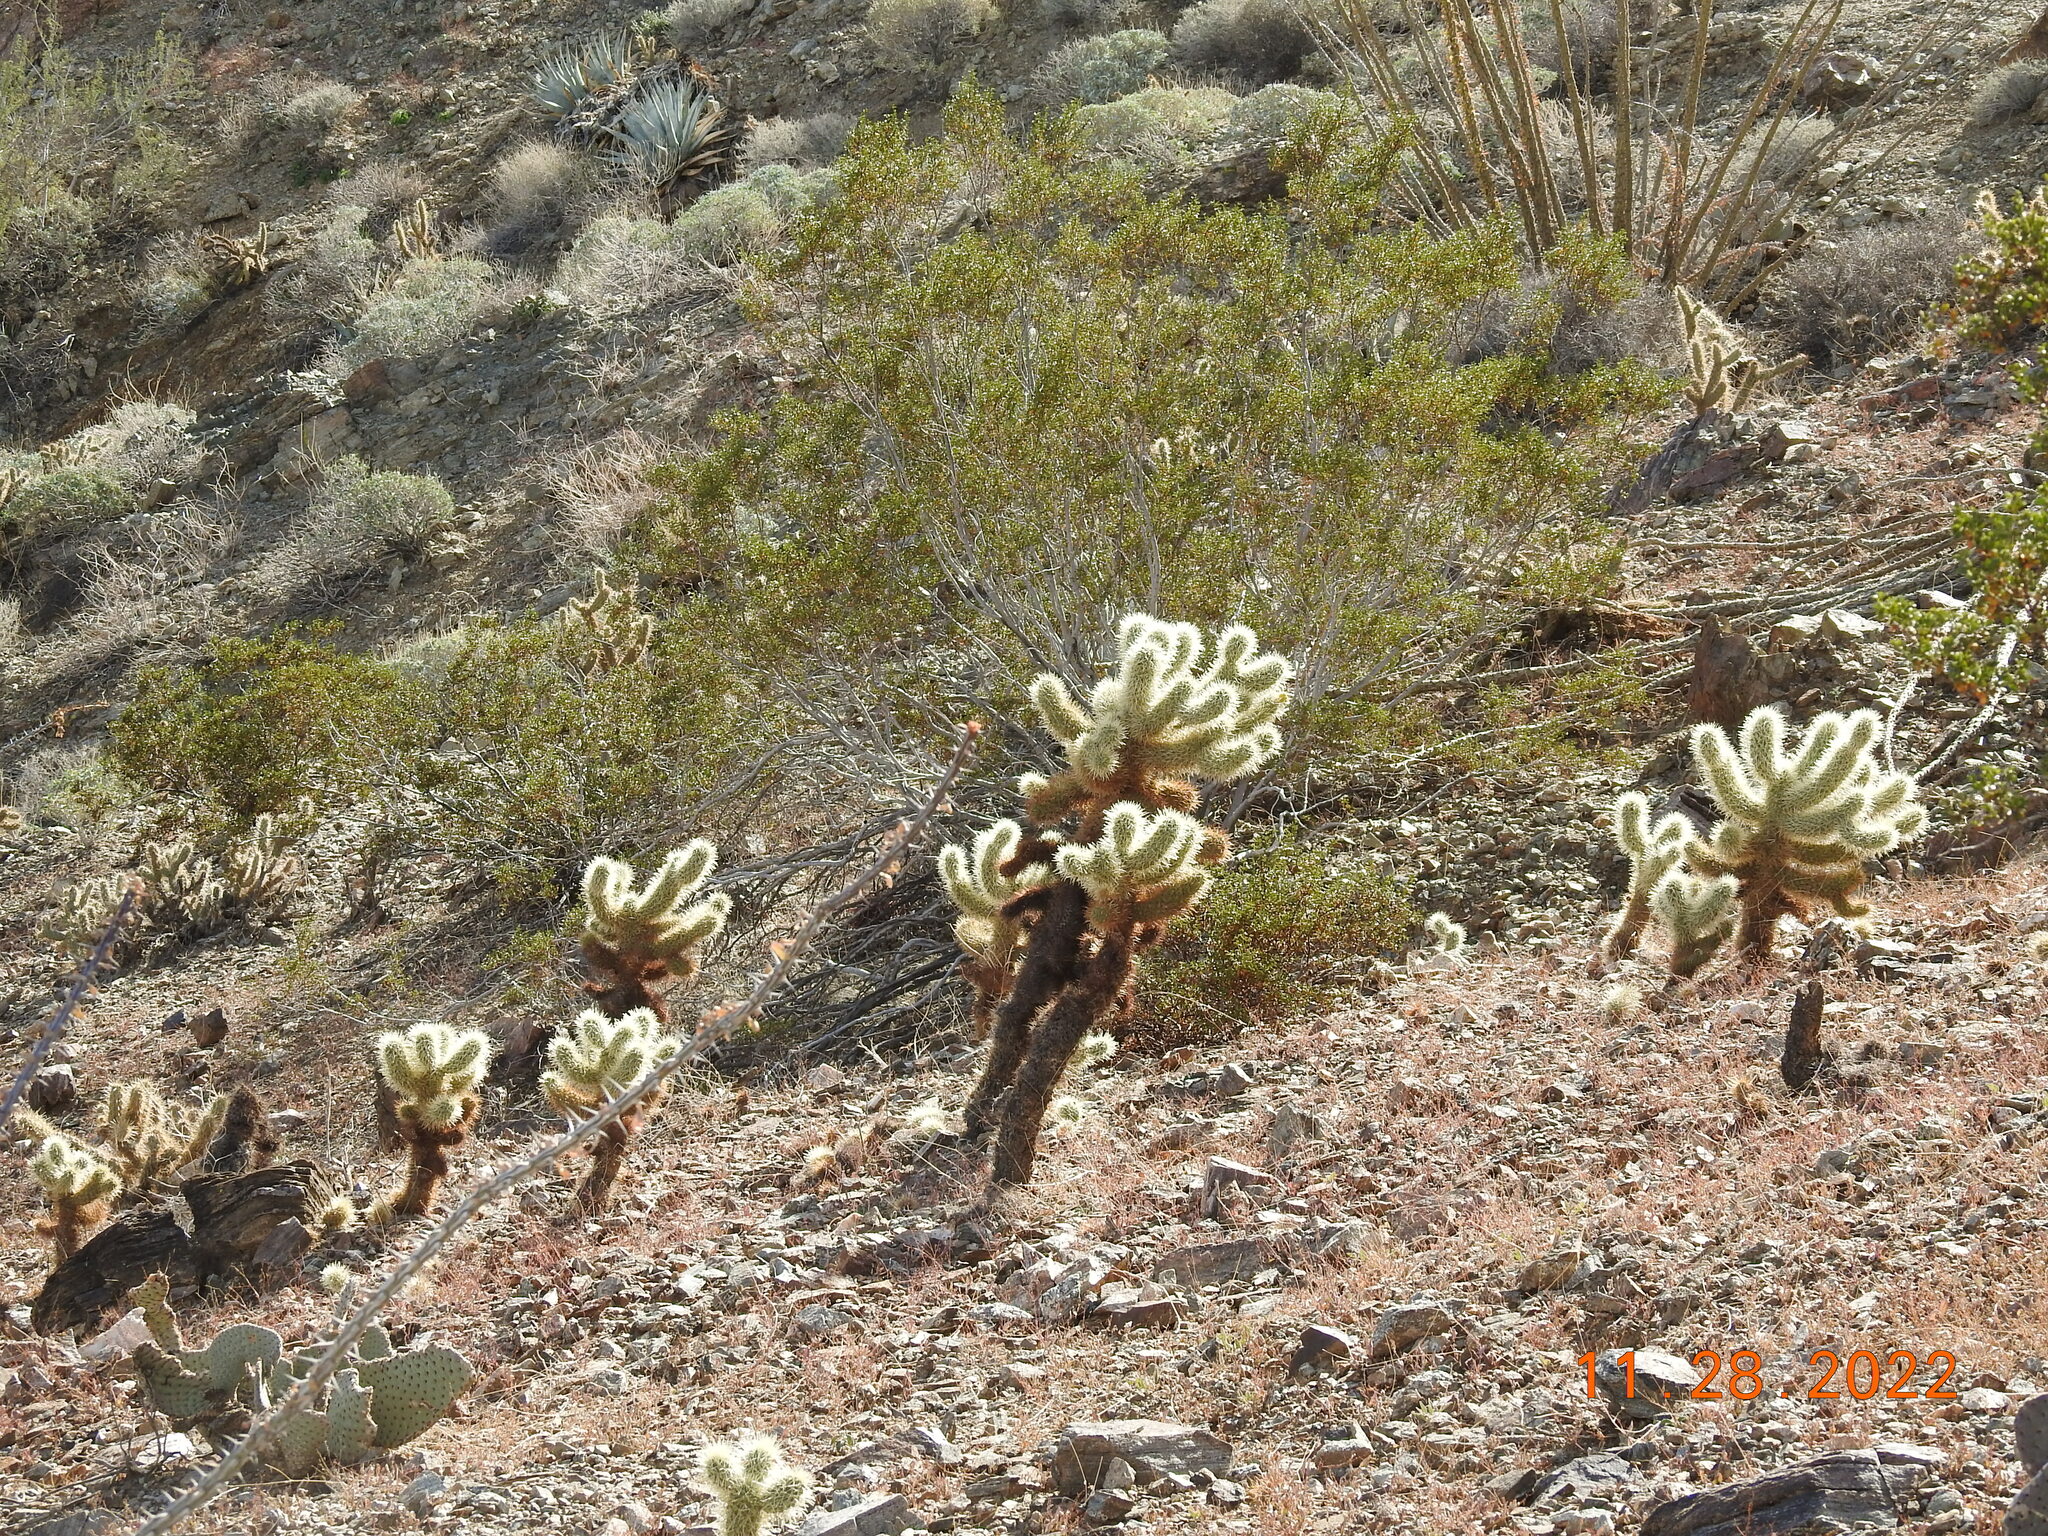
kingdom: Plantae
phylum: Tracheophyta
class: Magnoliopsida
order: Caryophyllales
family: Cactaceae
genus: Cylindropuntia
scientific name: Cylindropuntia fosbergii
